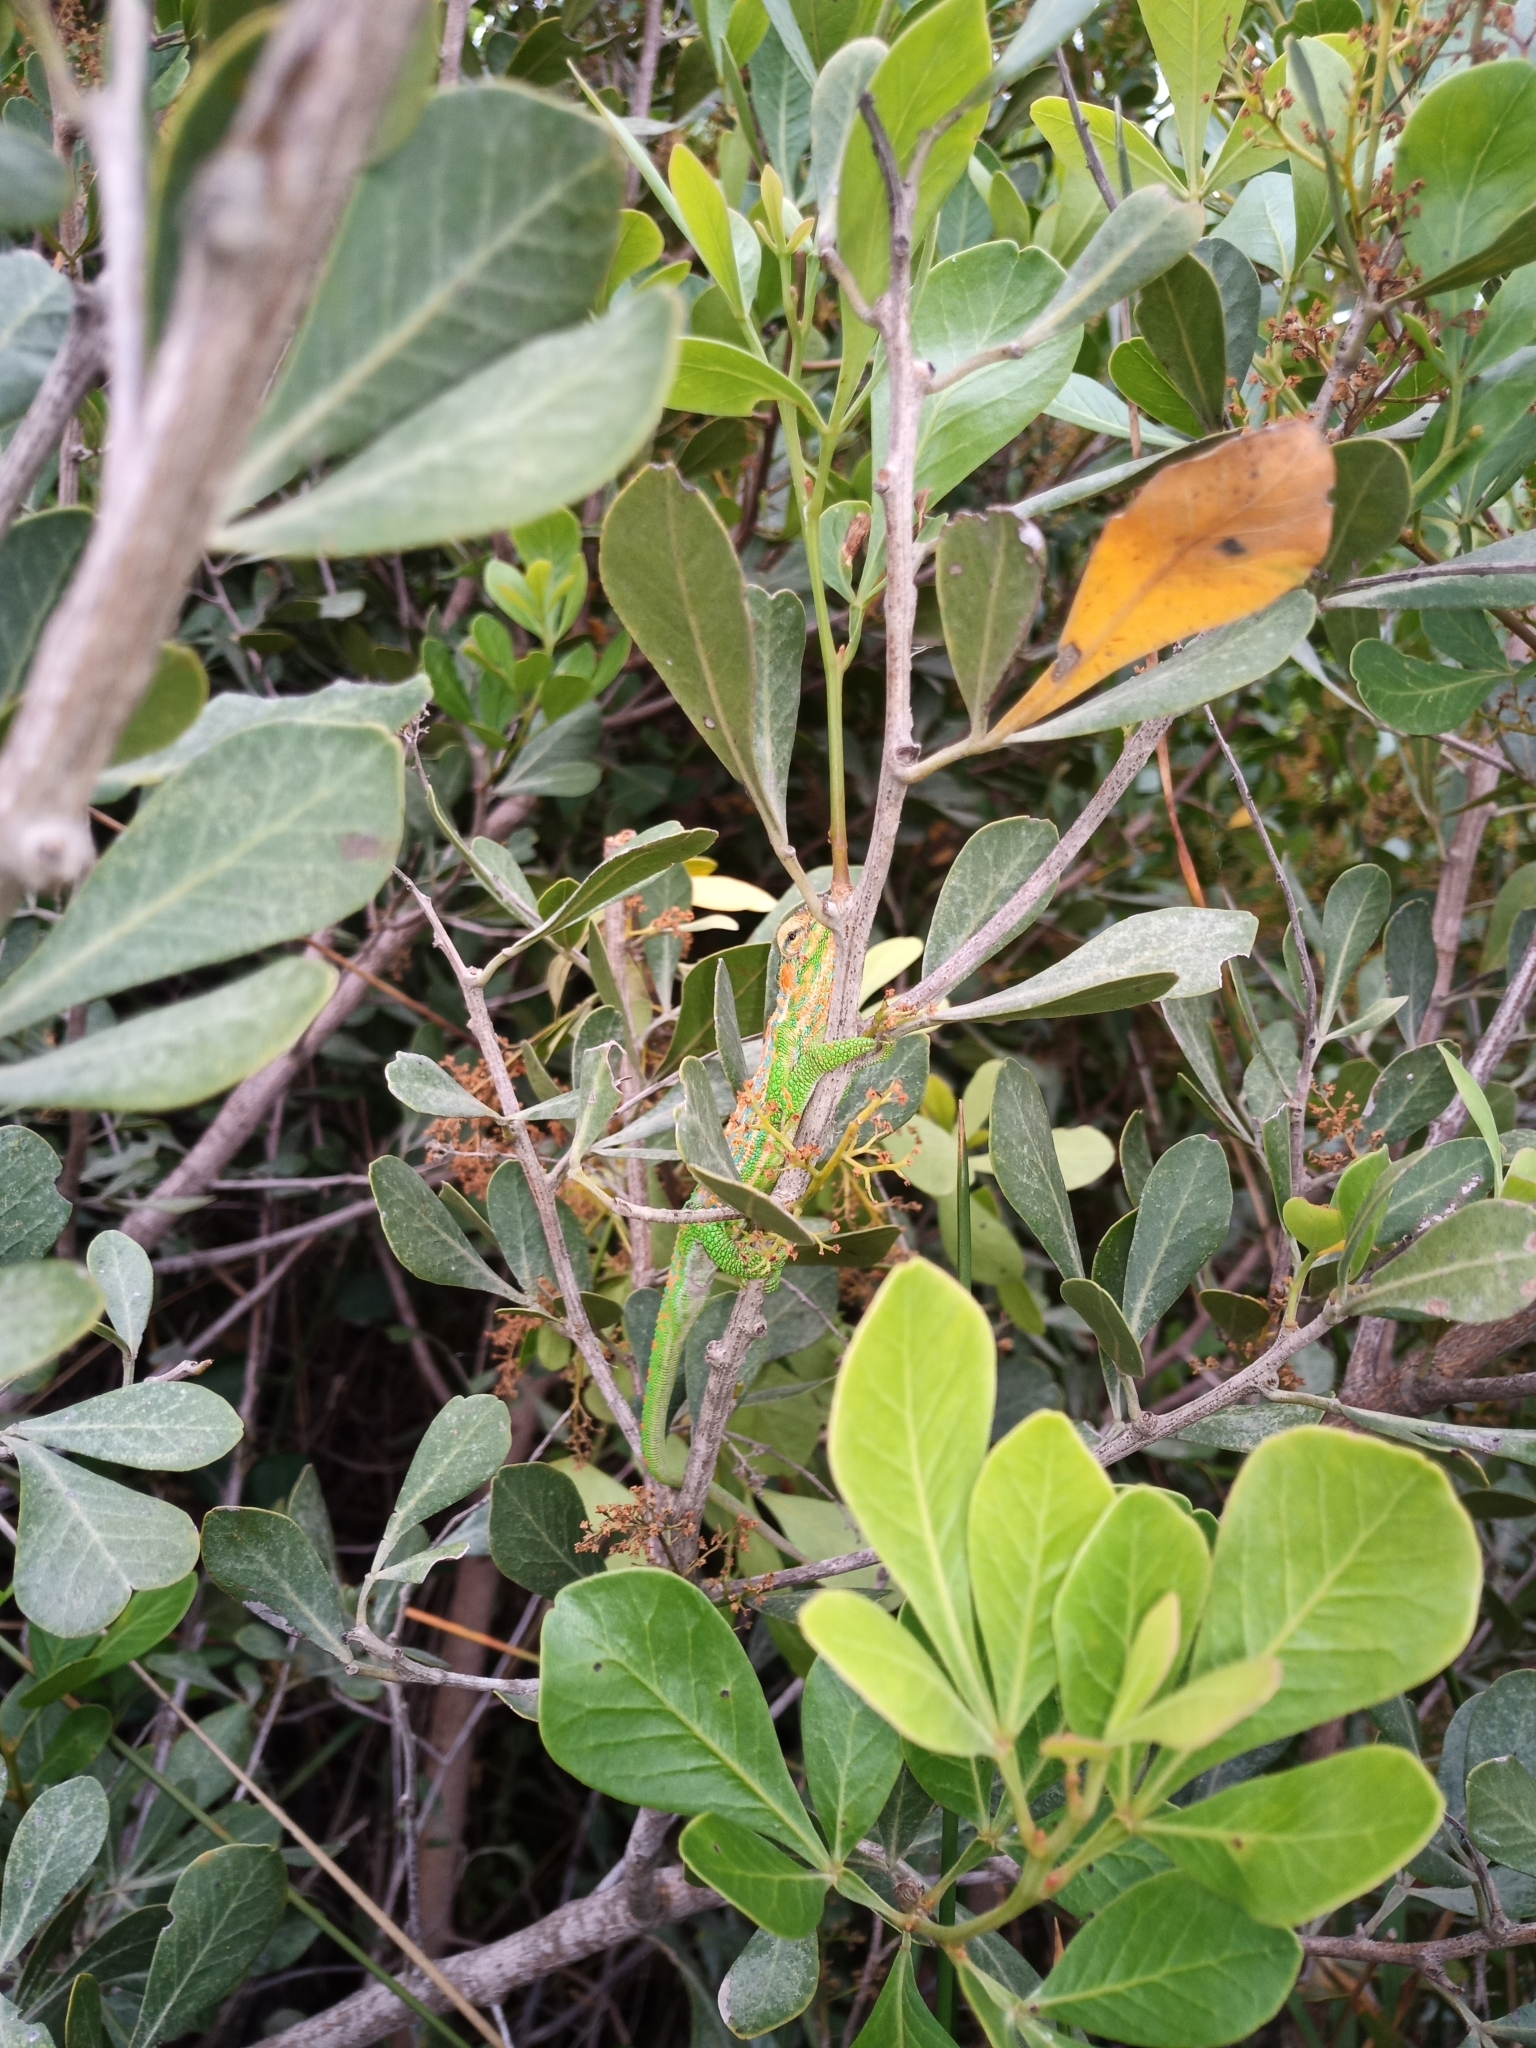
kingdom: Animalia
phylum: Chordata
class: Squamata
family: Chamaeleonidae
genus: Bradypodion
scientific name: Bradypodion pumilum
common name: Cape dwarf chameleon
